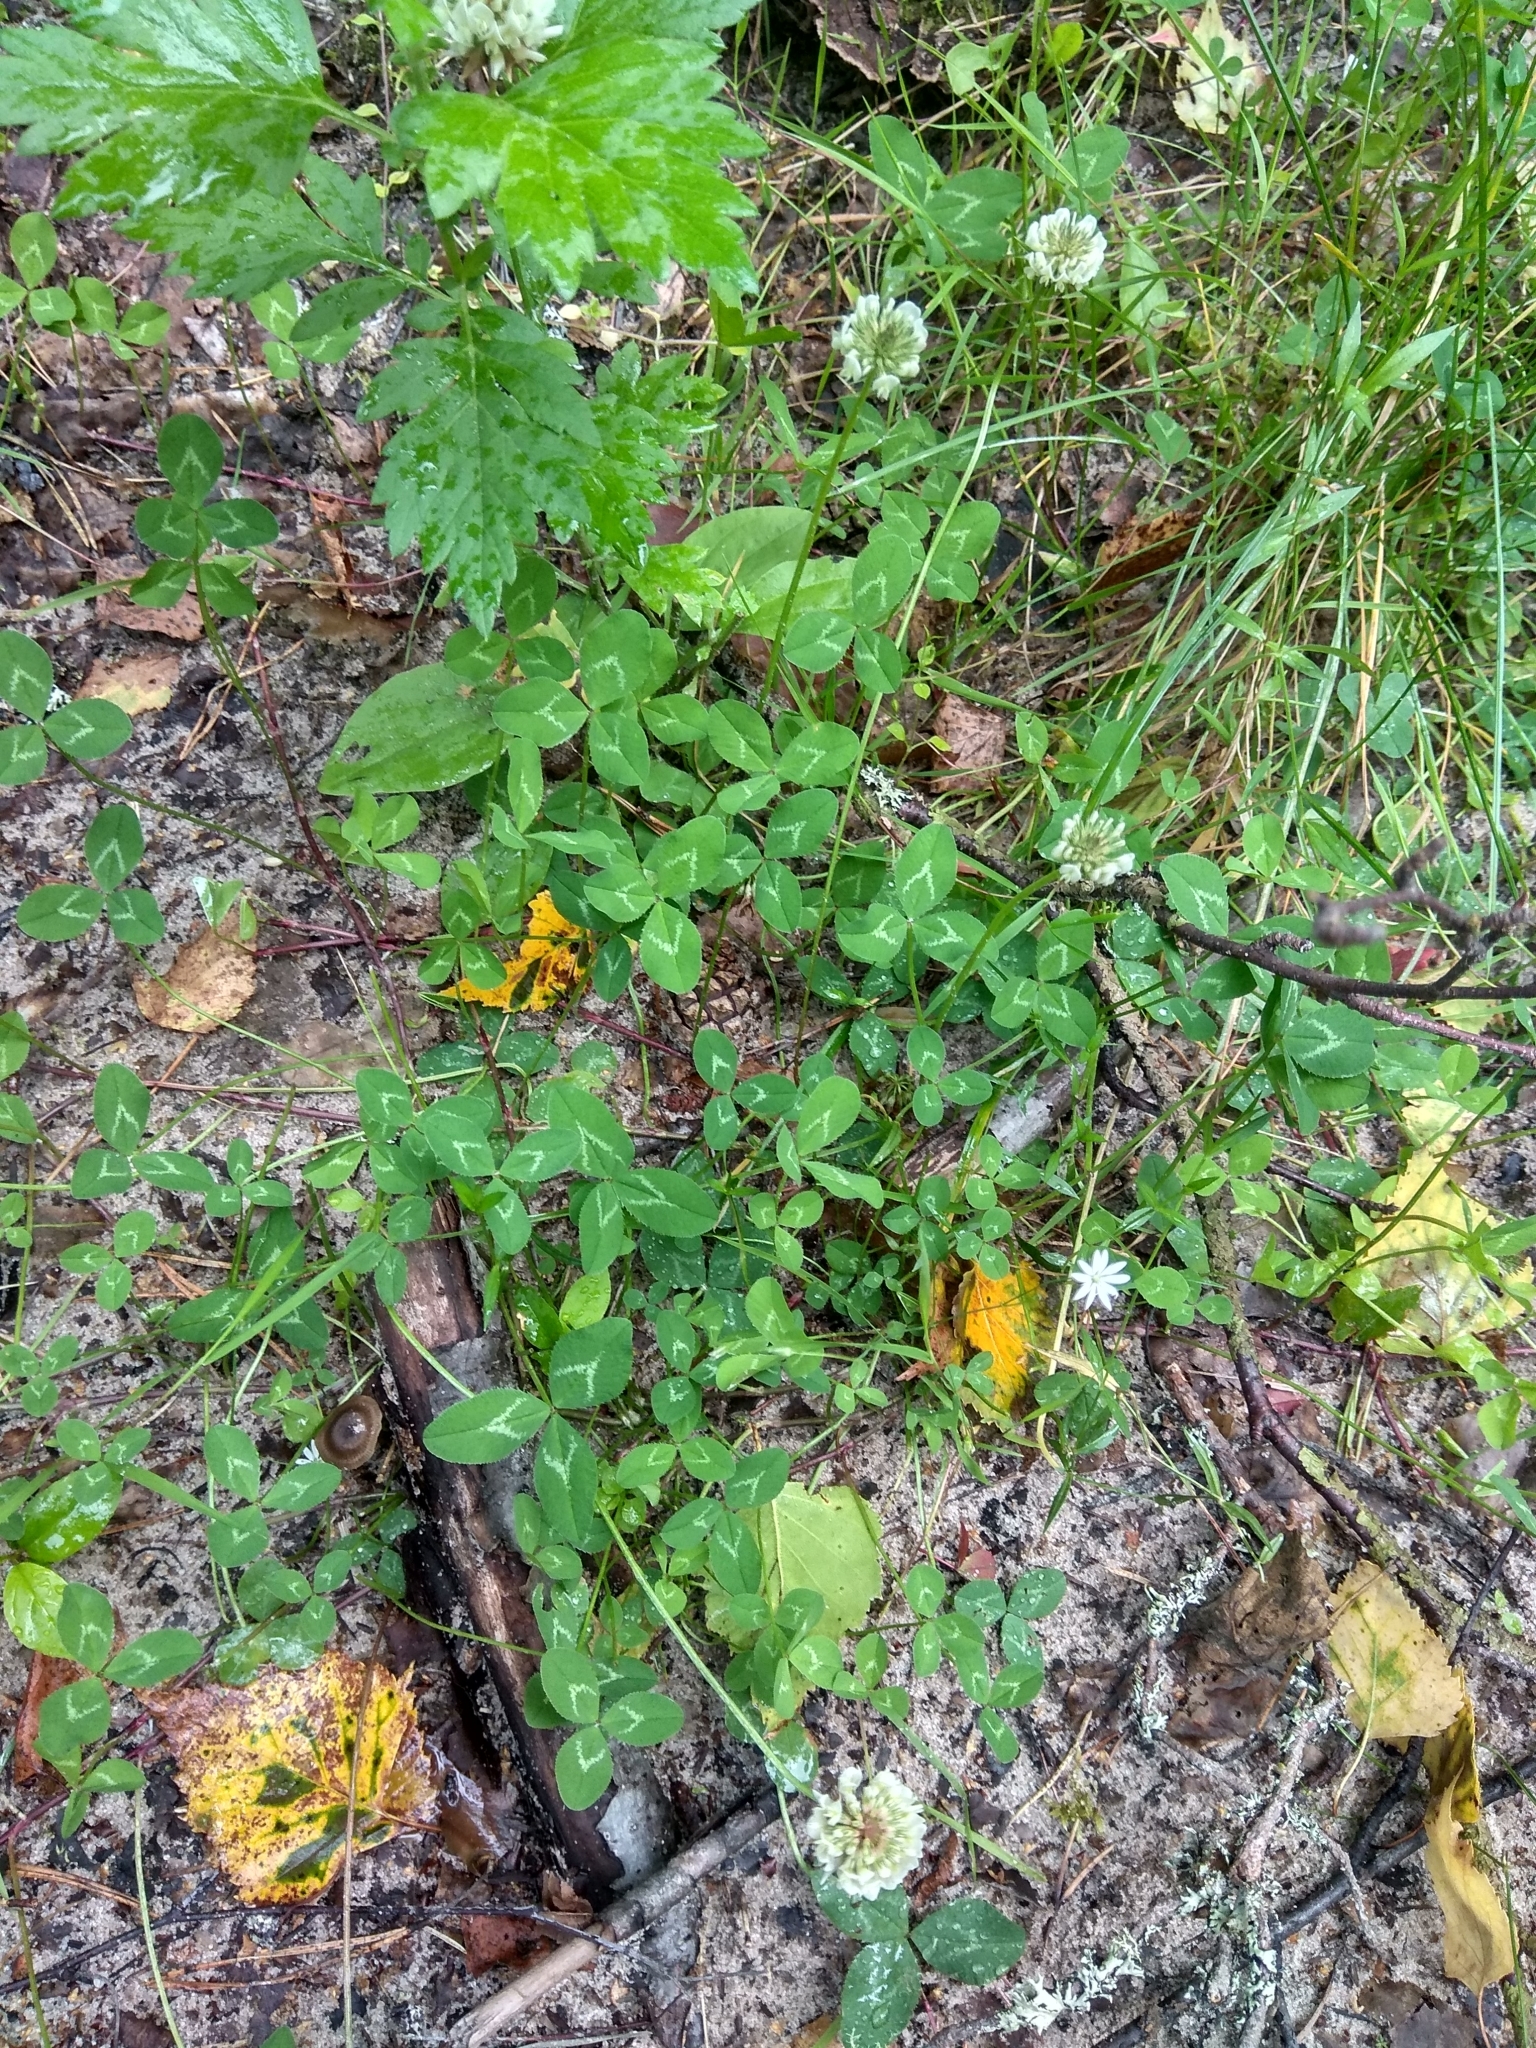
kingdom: Plantae
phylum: Tracheophyta
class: Magnoliopsida
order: Fabales
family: Fabaceae
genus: Trifolium
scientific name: Trifolium repens
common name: White clover
